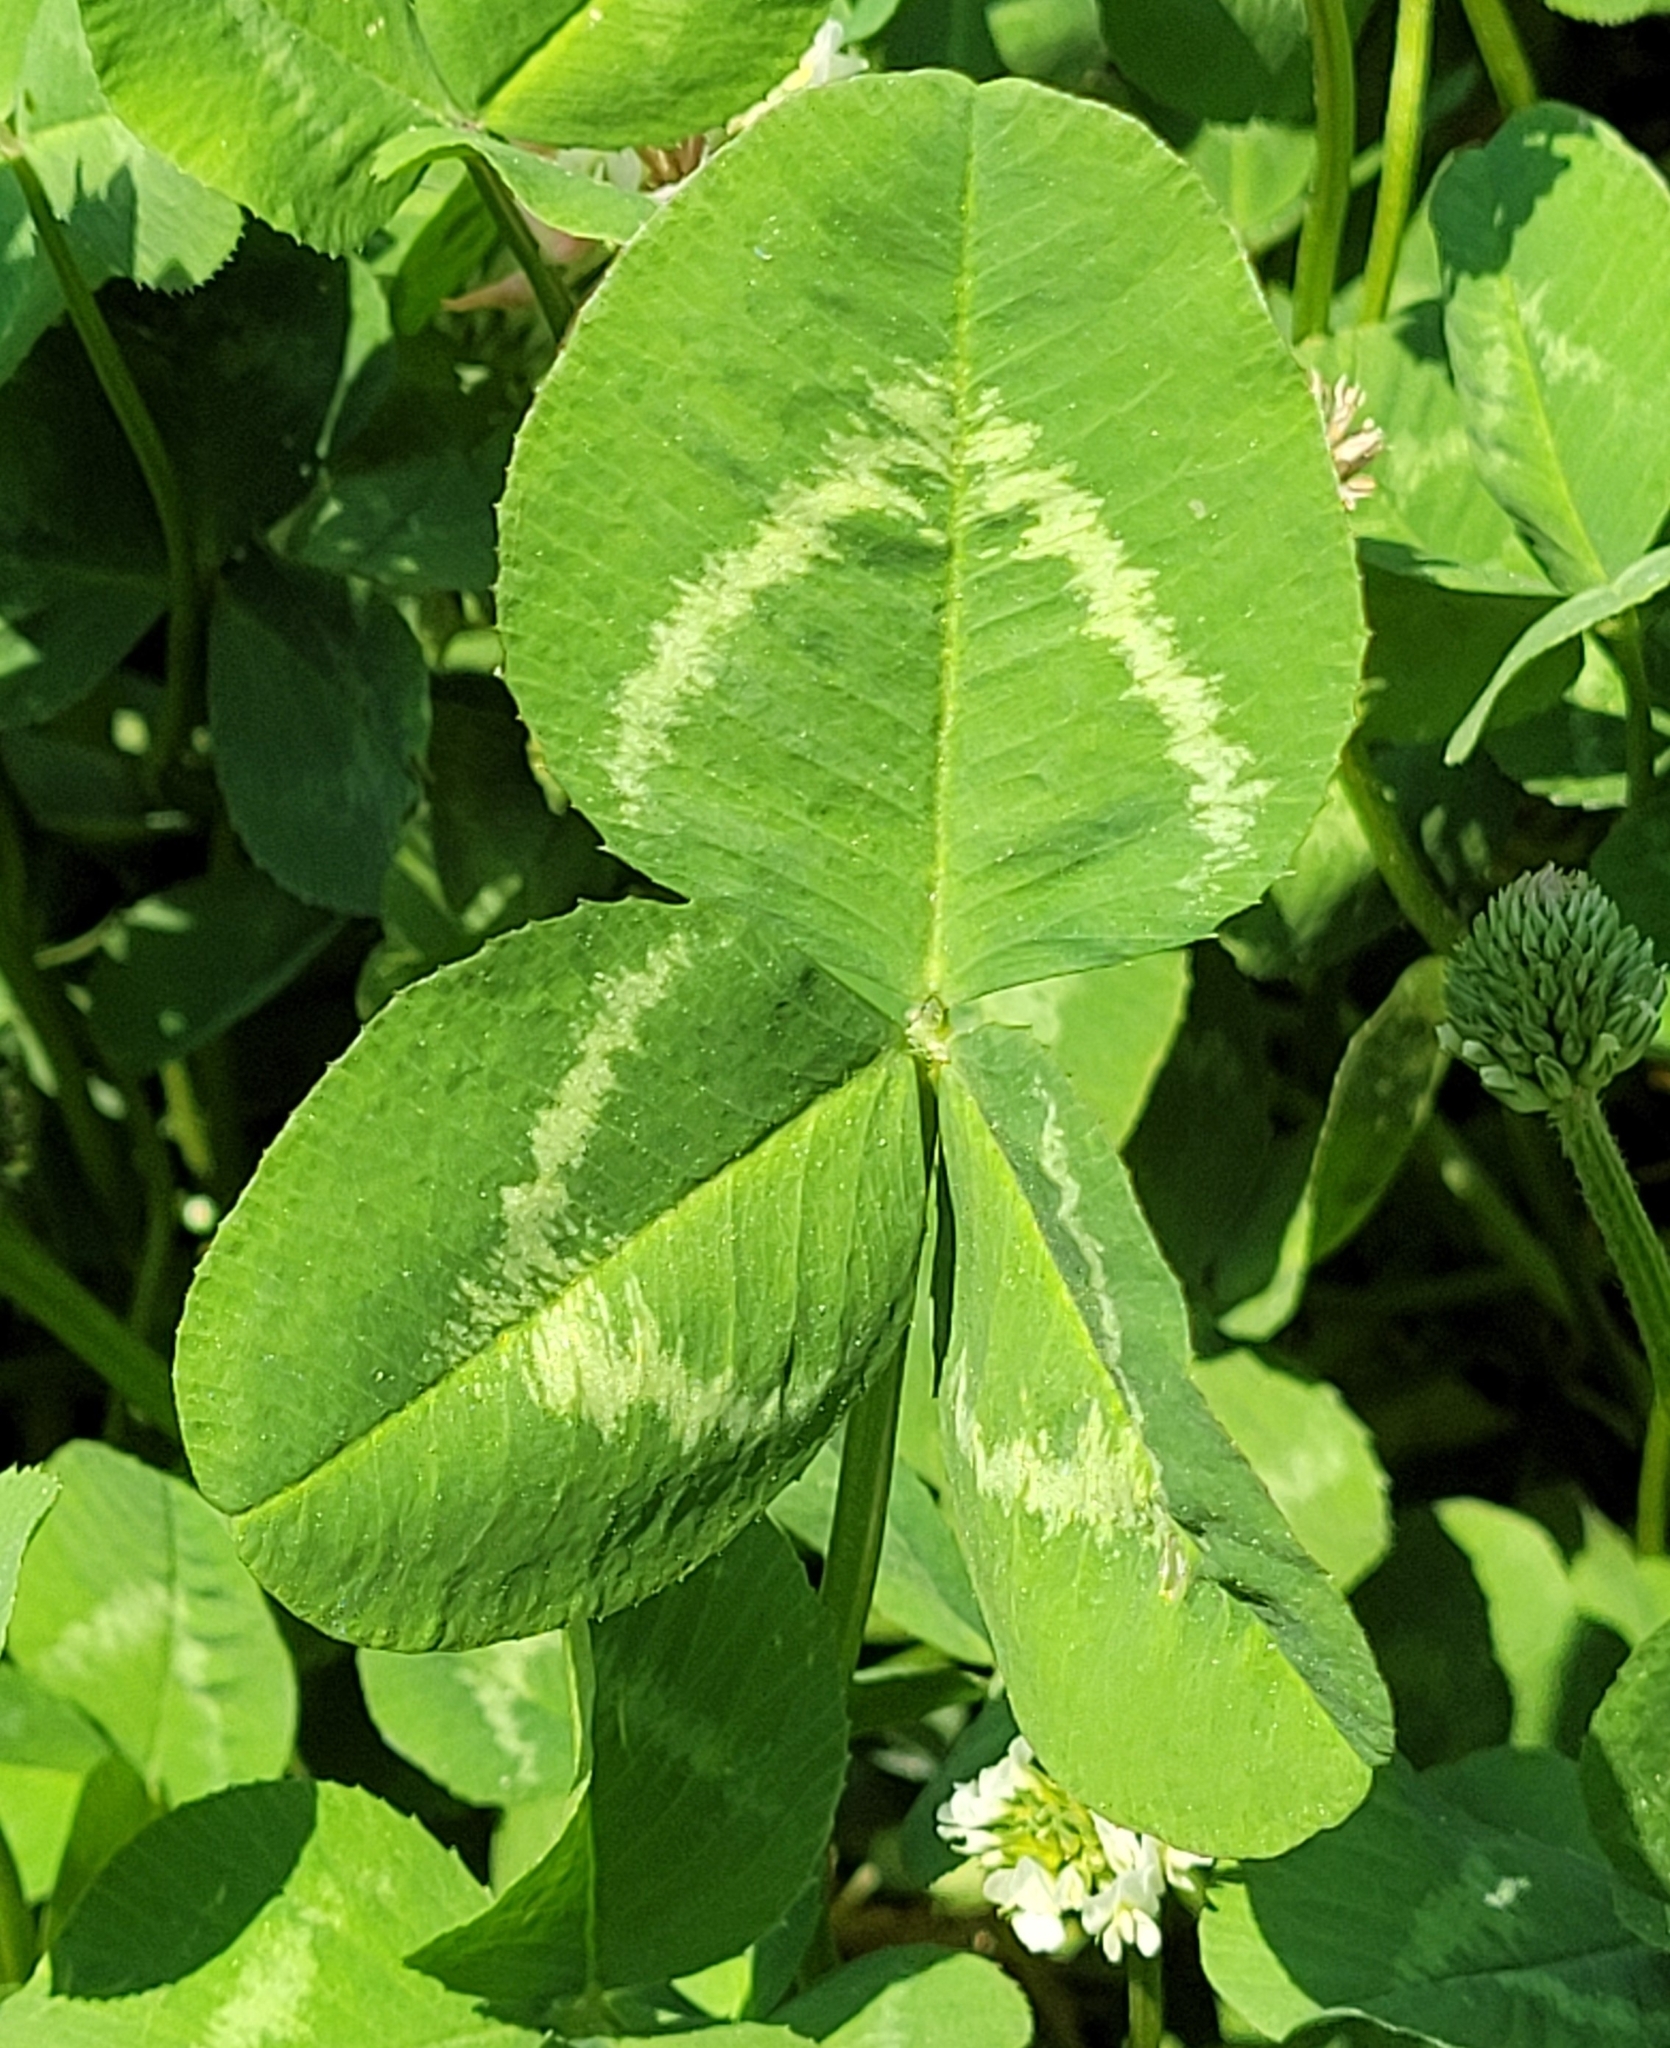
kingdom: Plantae
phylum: Tracheophyta
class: Magnoliopsida
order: Fabales
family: Fabaceae
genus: Trifolium
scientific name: Trifolium repens
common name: White clover
